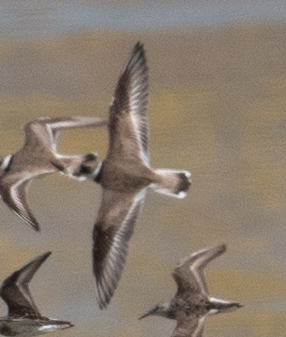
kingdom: Animalia
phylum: Chordata
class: Aves
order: Charadriiformes
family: Charadriidae
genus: Charadrius
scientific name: Charadrius semipalmatus
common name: Semipalmated plover
